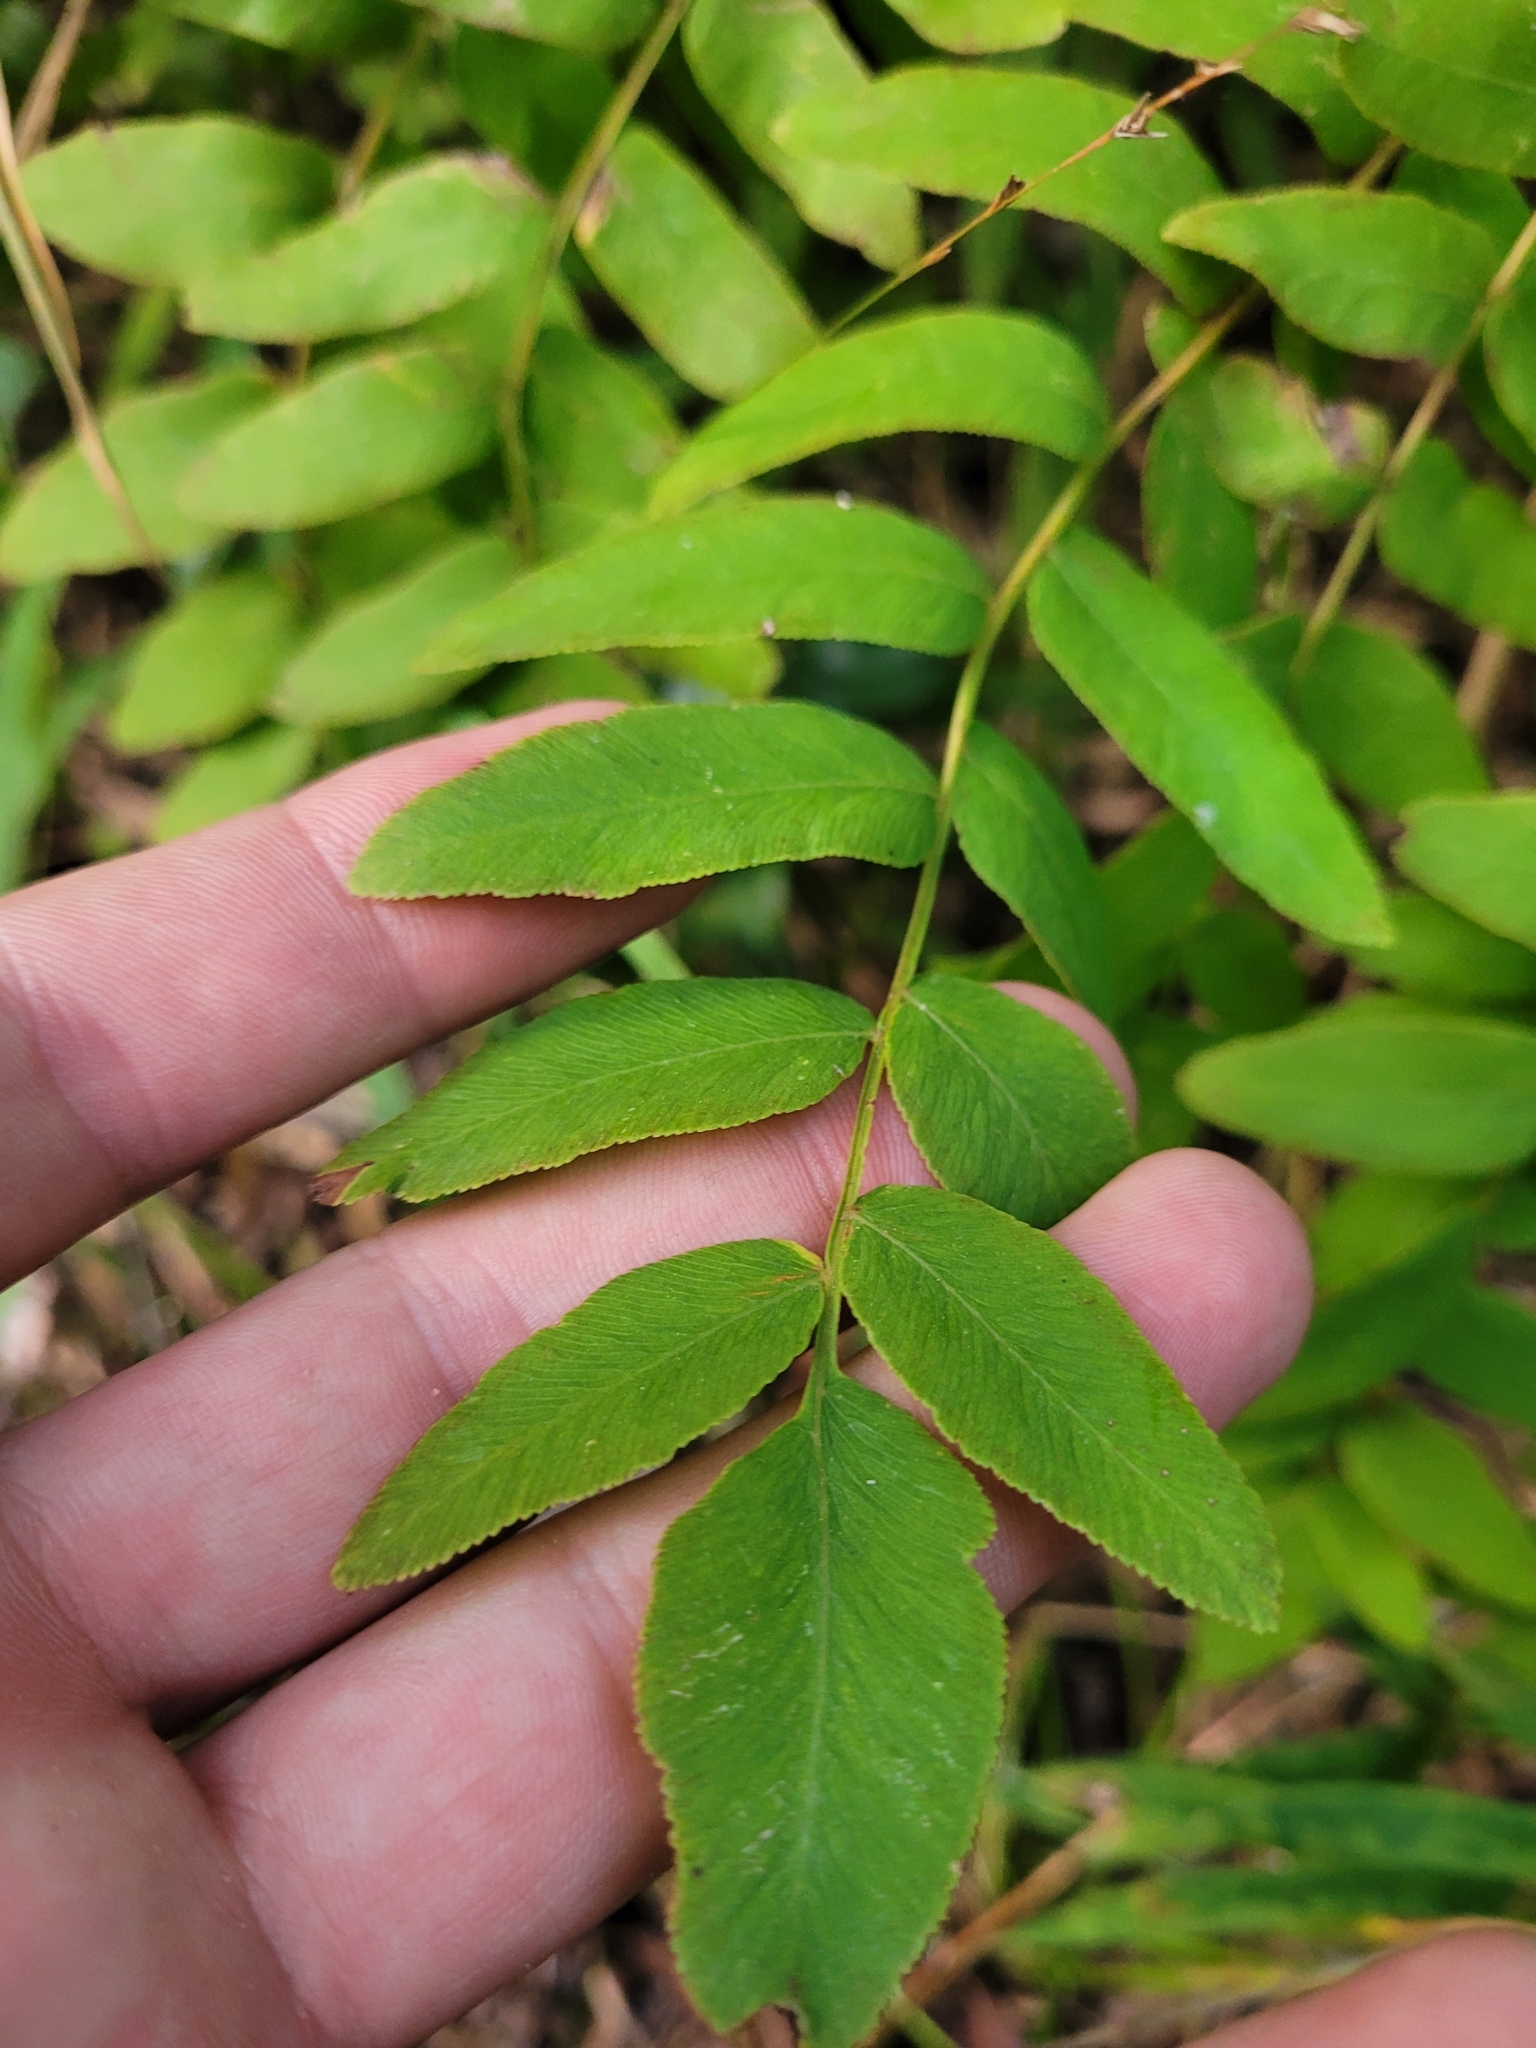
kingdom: Plantae
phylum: Tracheophyta
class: Polypodiopsida
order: Osmundales
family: Osmundaceae
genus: Osmunda
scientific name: Osmunda spectabilis
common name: American royal fern
